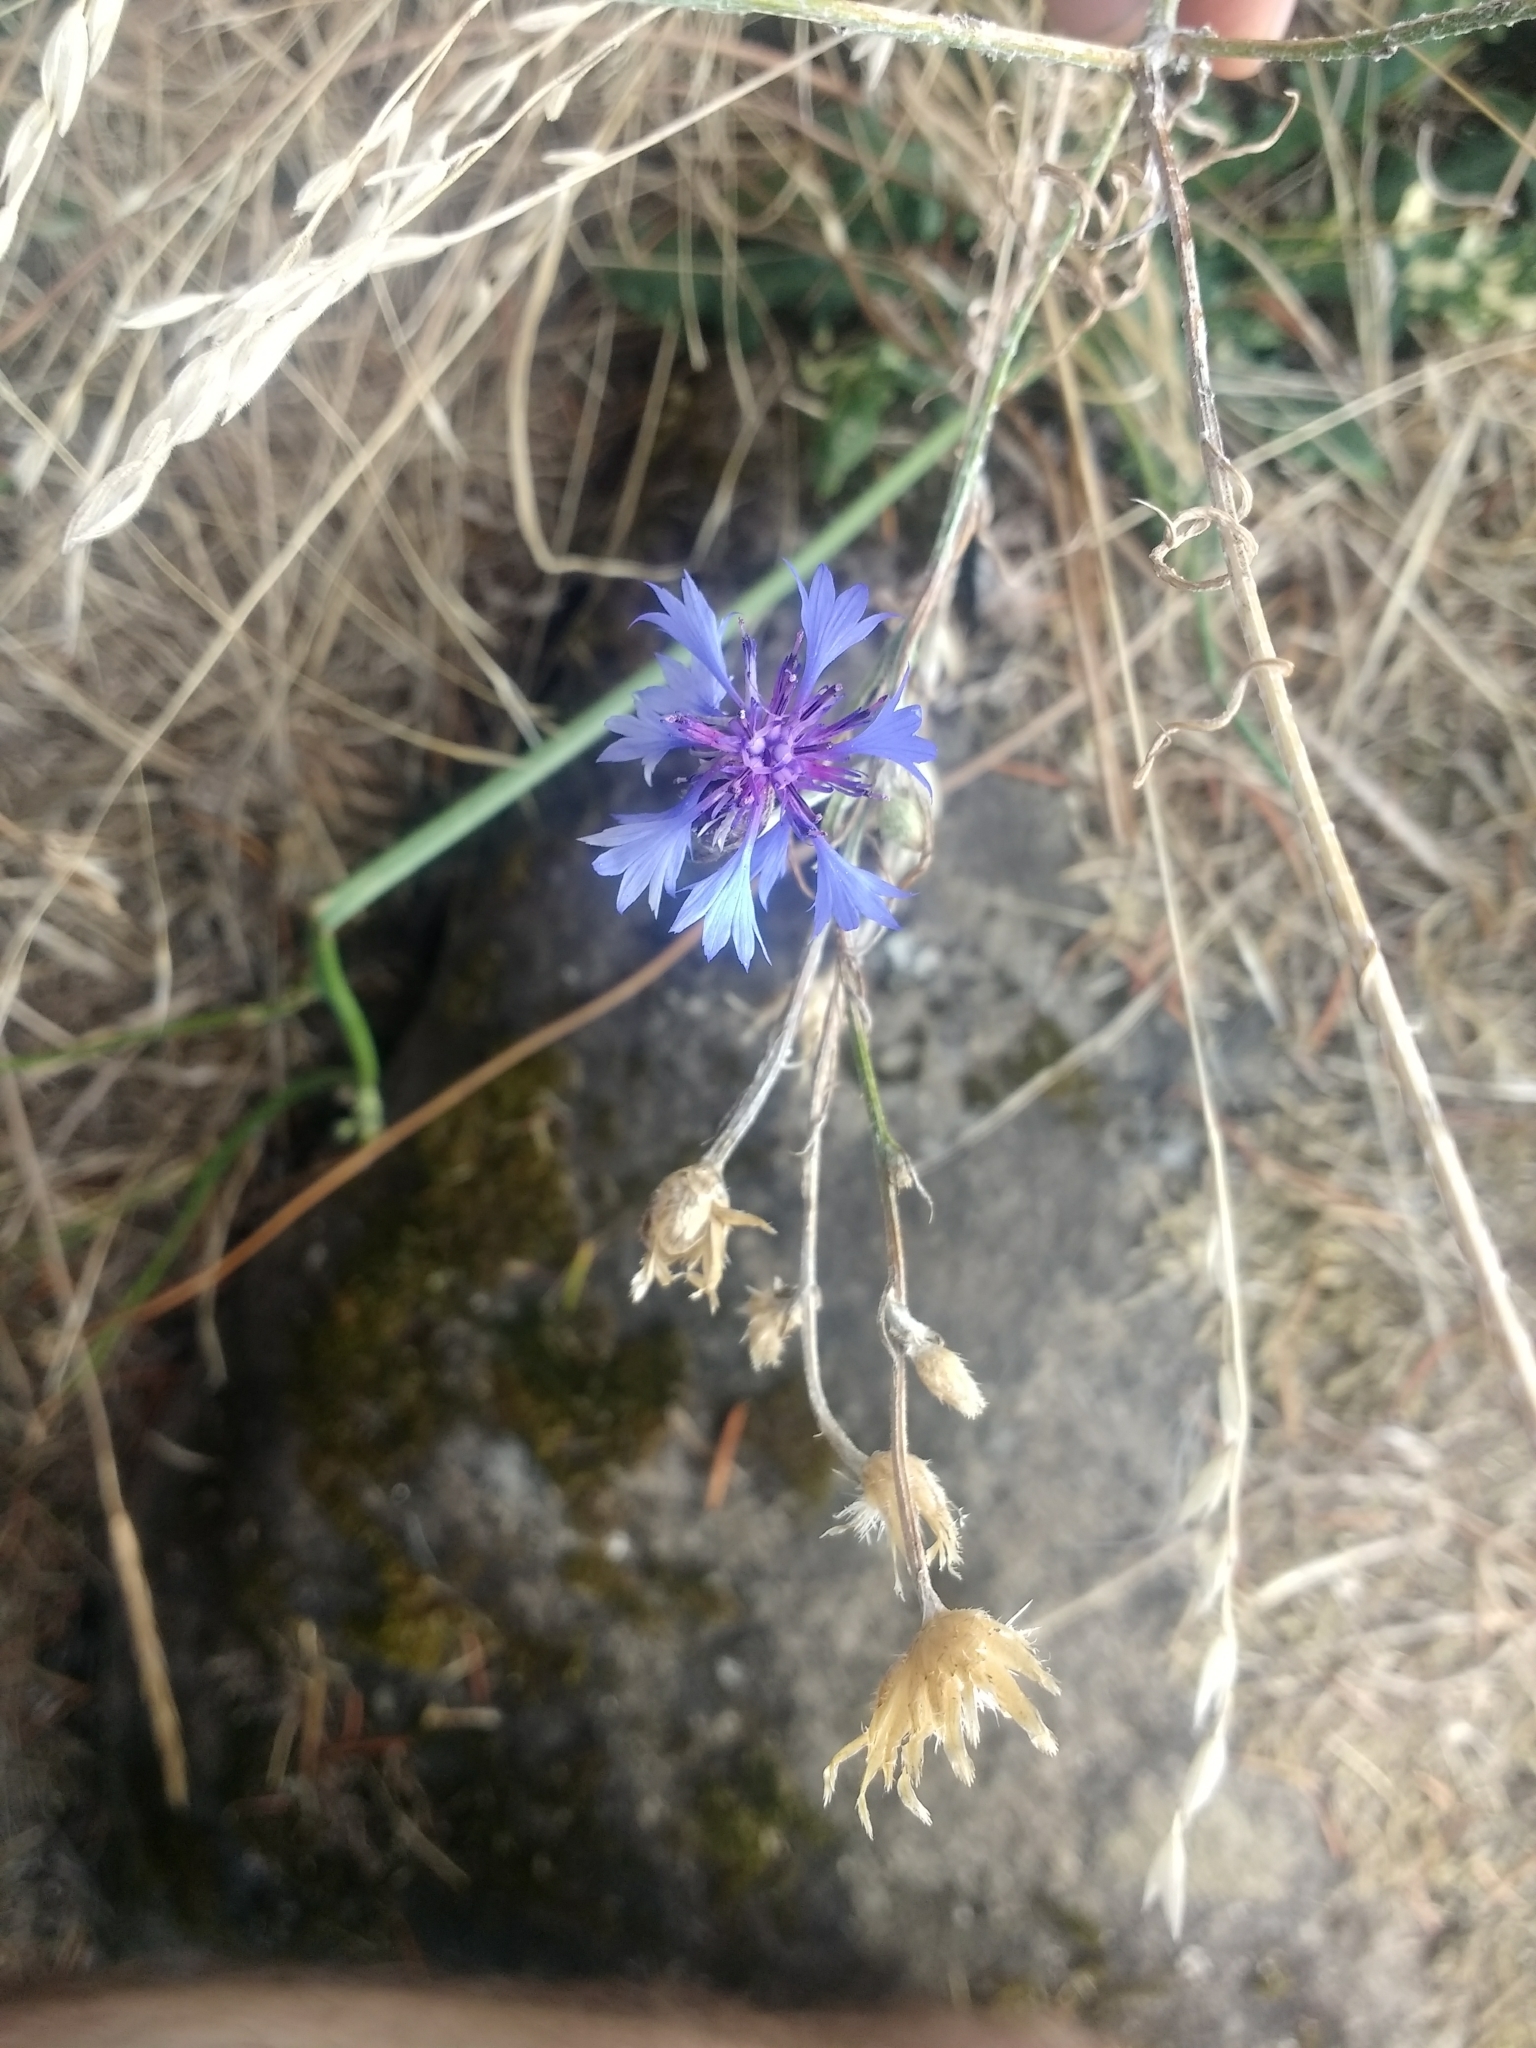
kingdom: Plantae
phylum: Tracheophyta
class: Magnoliopsida
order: Asterales
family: Asteraceae
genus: Centaurea
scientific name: Centaurea cyanus
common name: Cornflower
